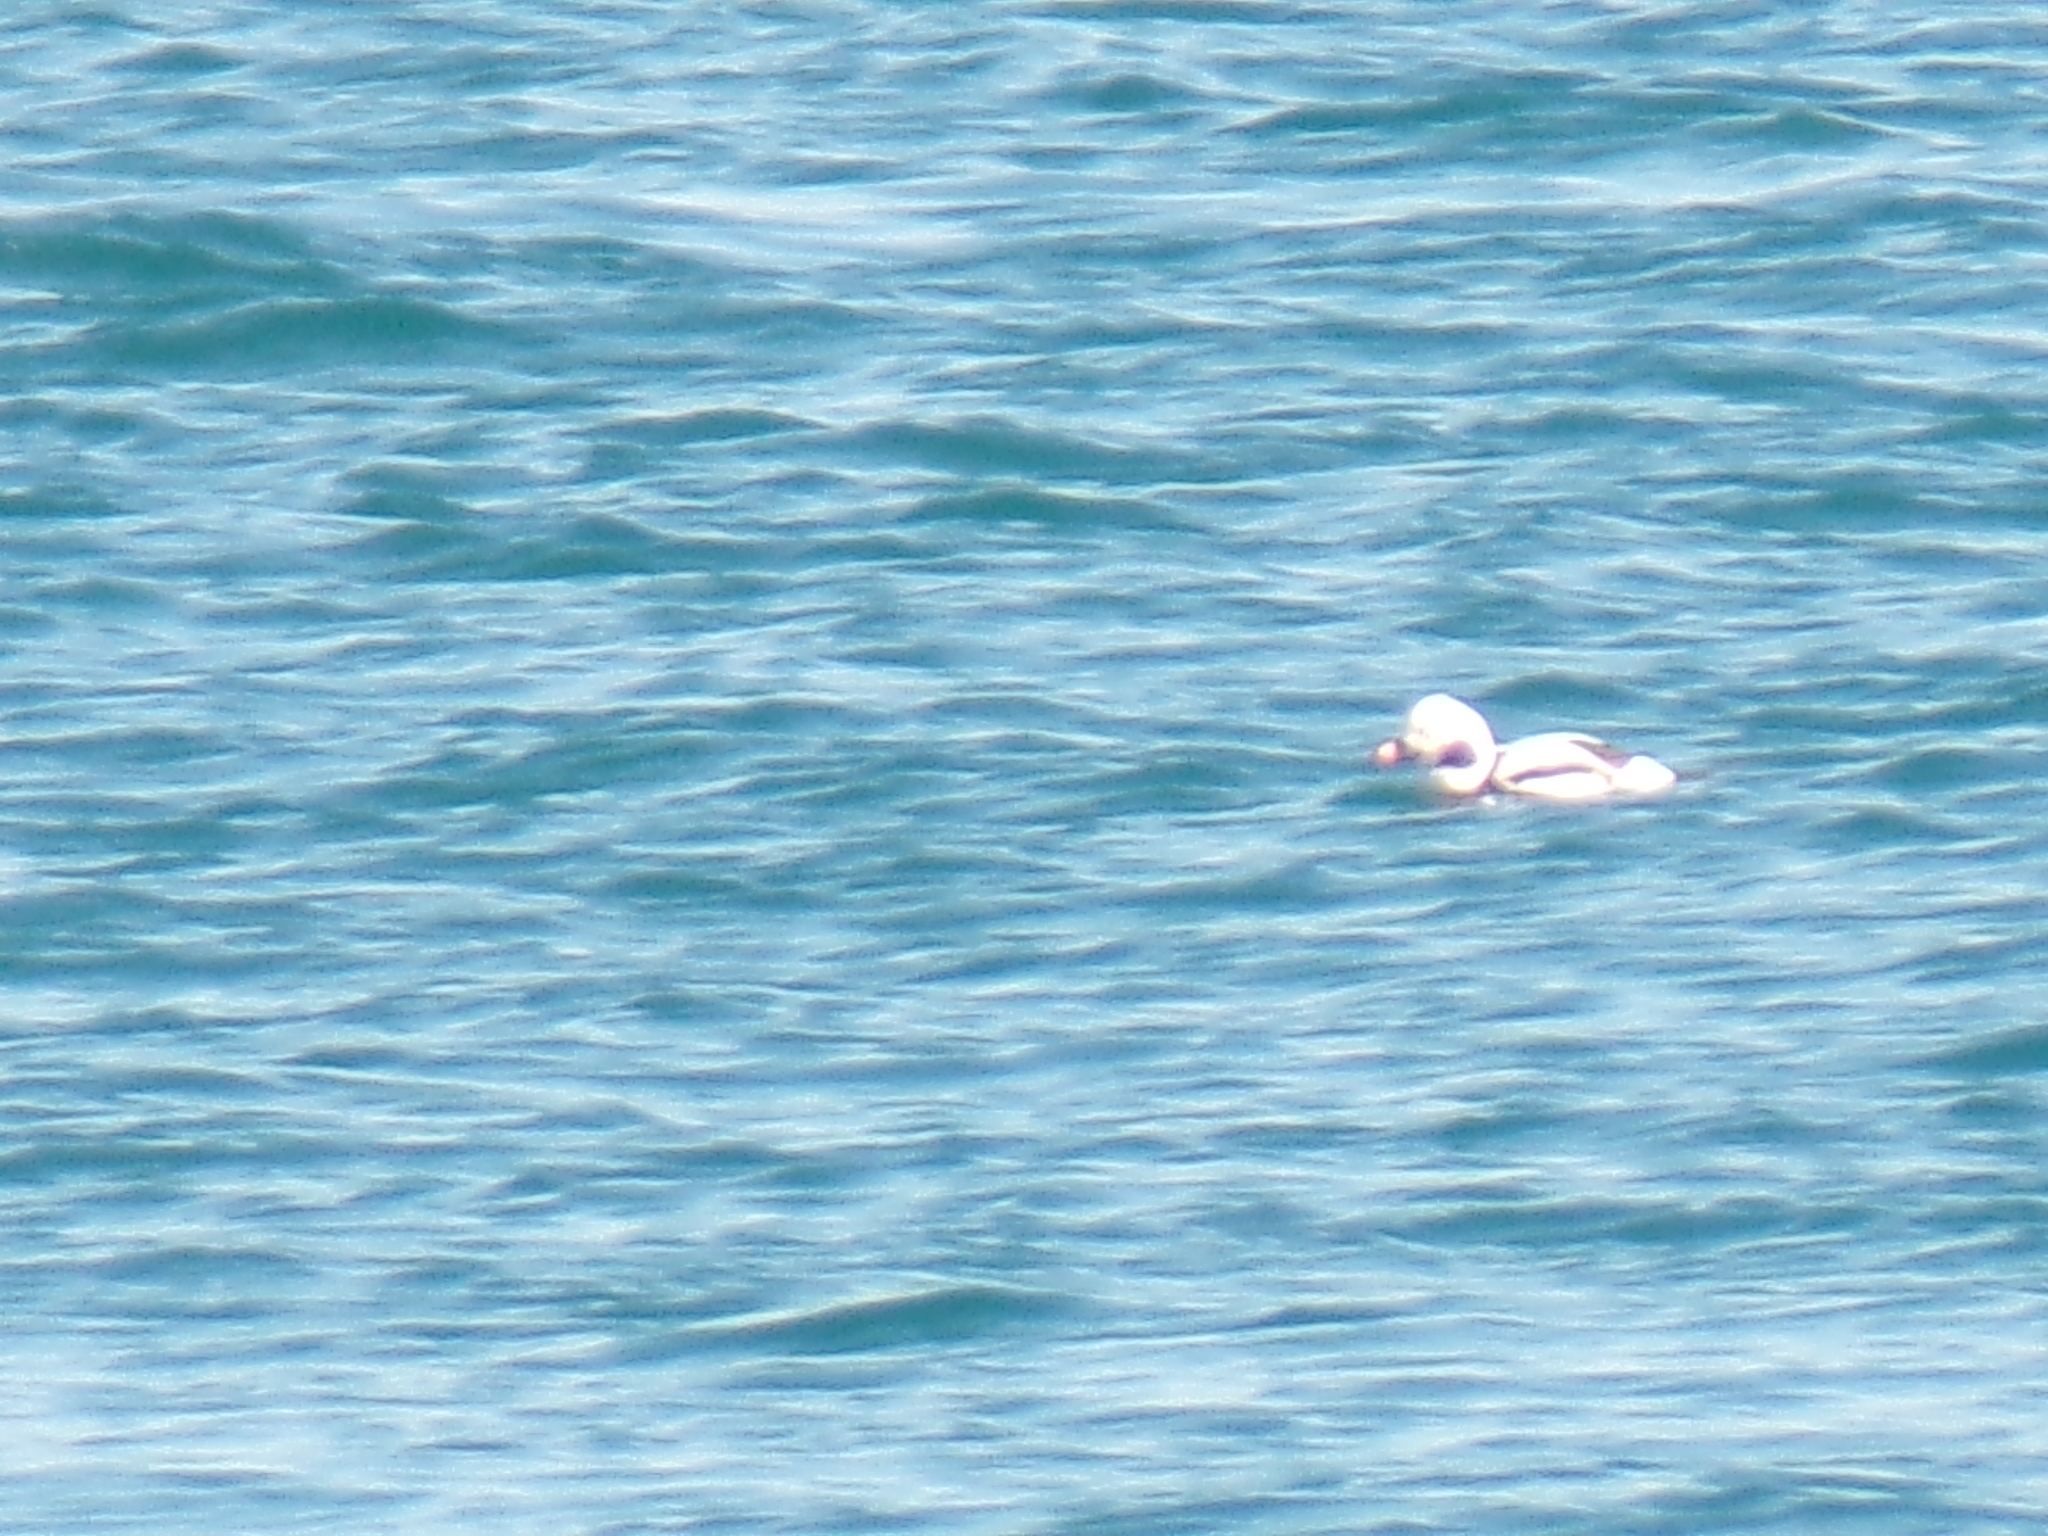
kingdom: Animalia
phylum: Chordata
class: Aves
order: Anseriformes
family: Anatidae
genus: Clangula
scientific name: Clangula hyemalis
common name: Long-tailed duck
